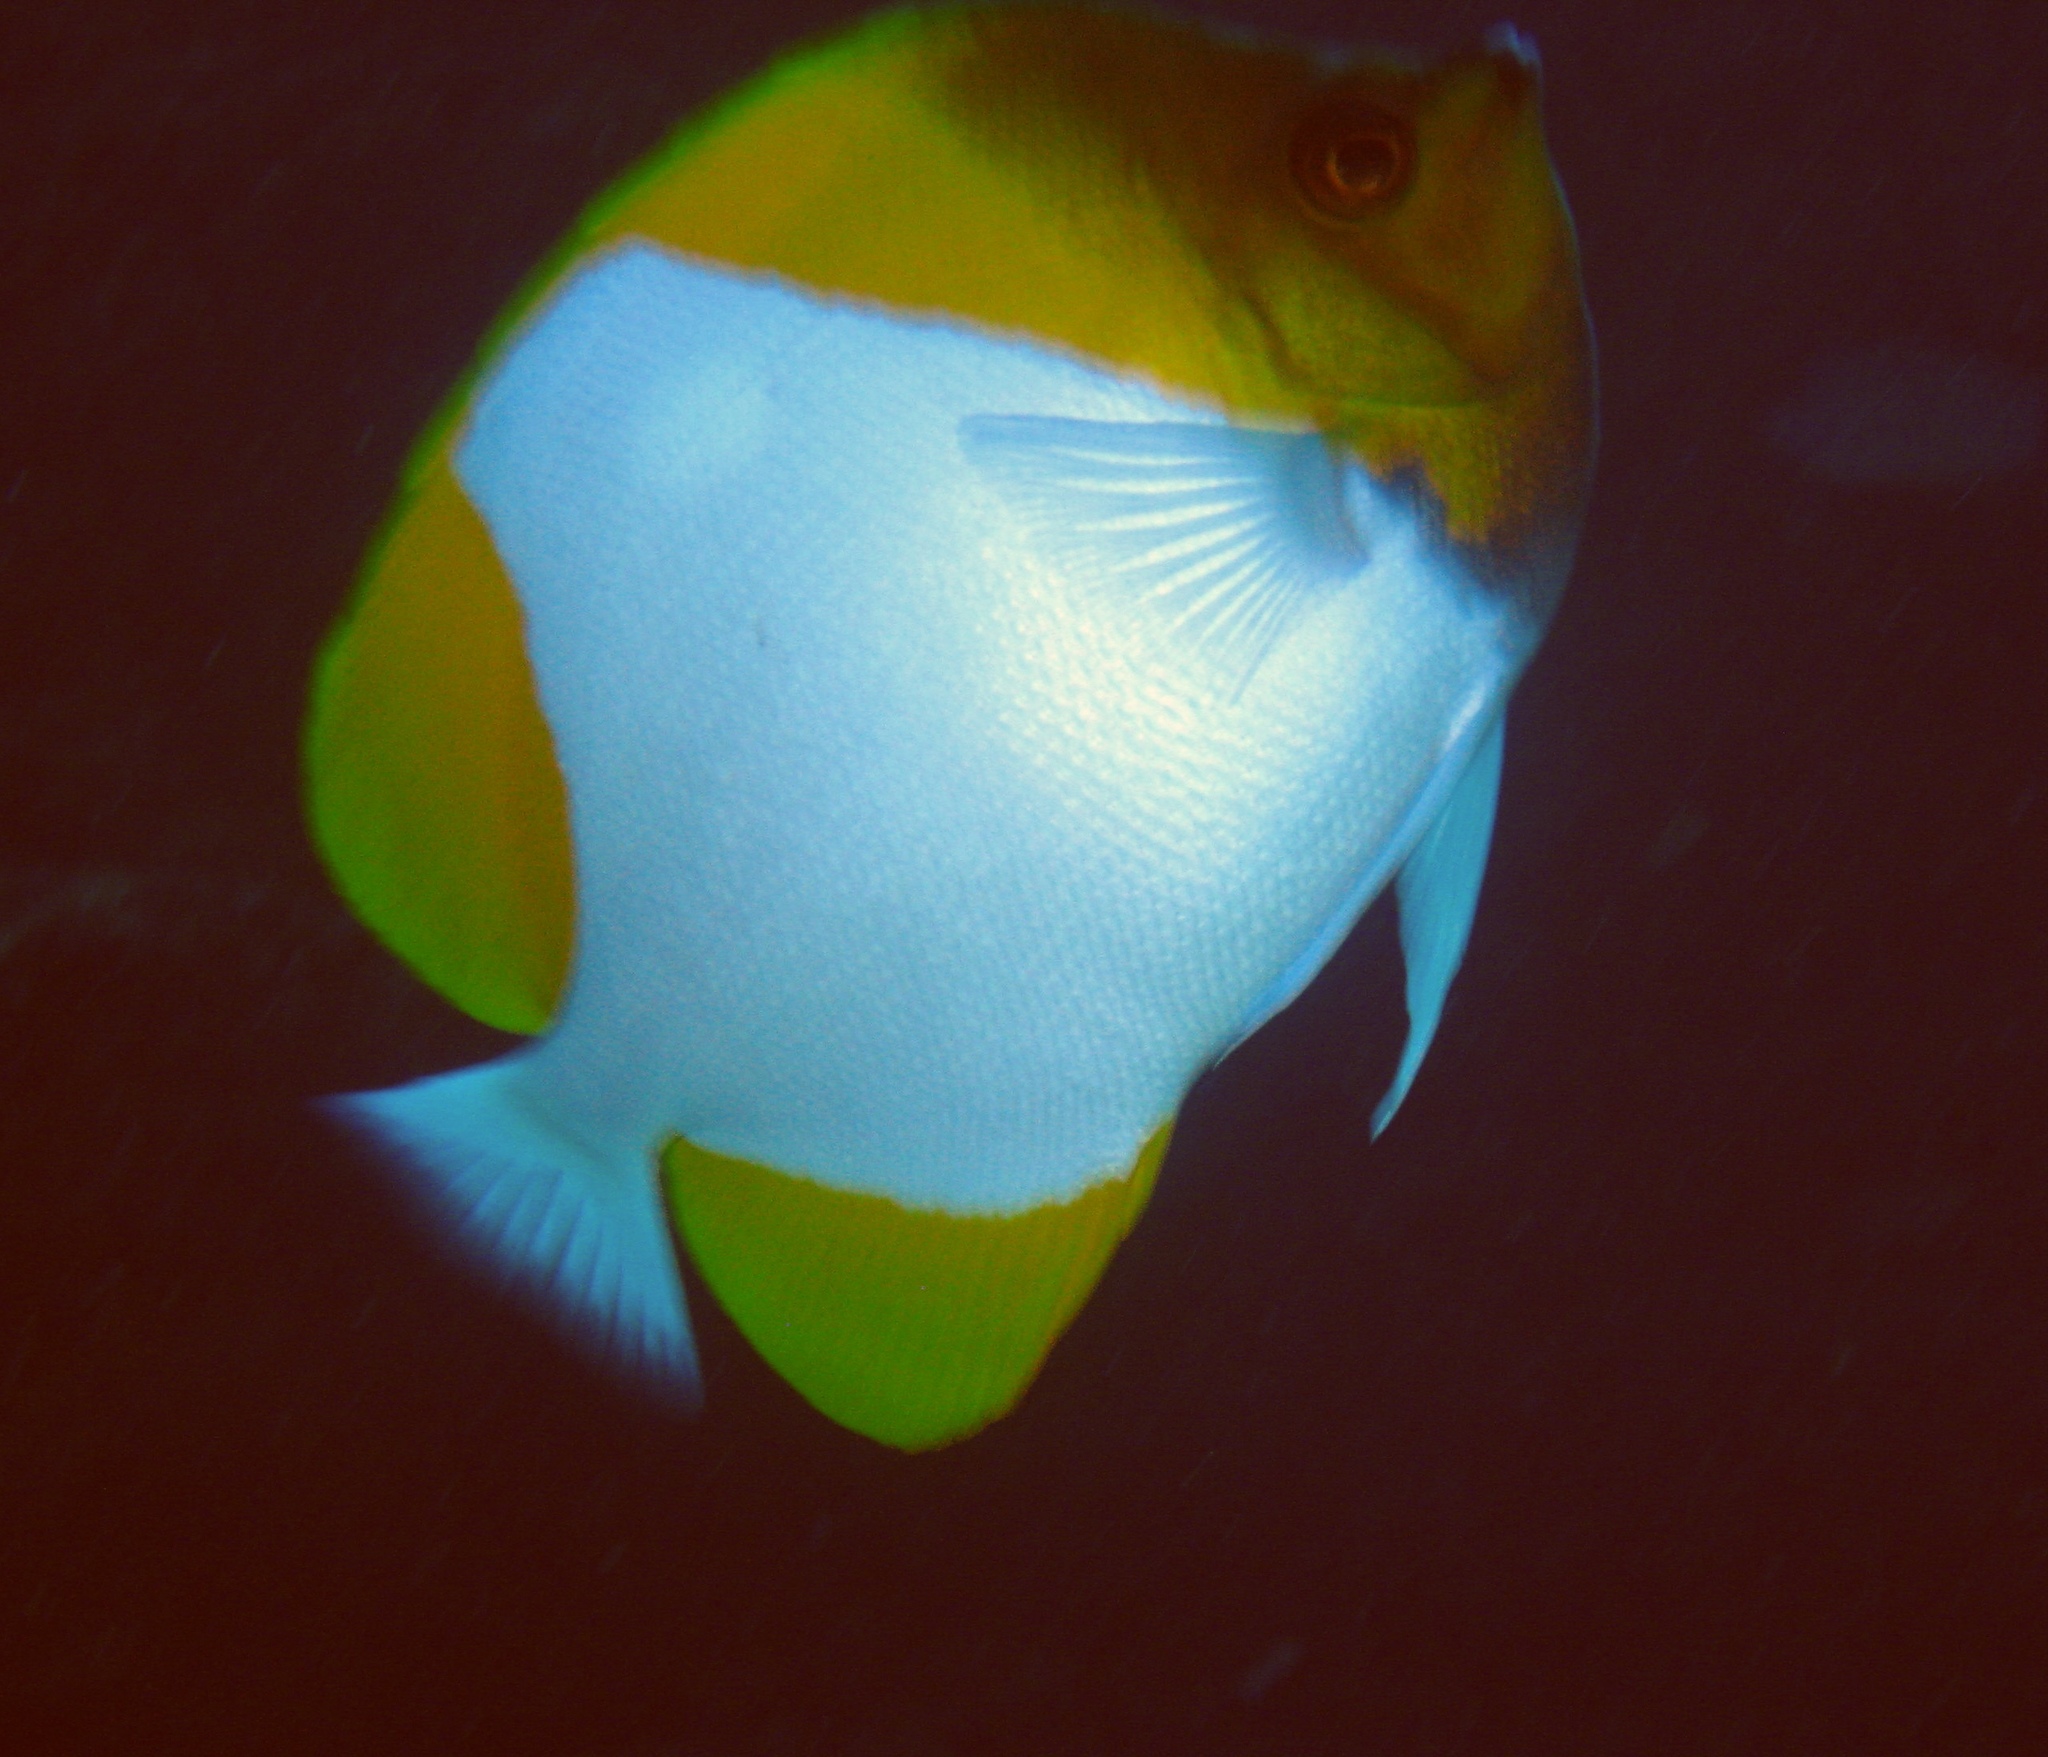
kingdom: Animalia
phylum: Chordata
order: Perciformes
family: Chaetodontidae
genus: Hemitaurichthys
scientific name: Hemitaurichthys polylepis
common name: Brushytoothed butterflyfish
